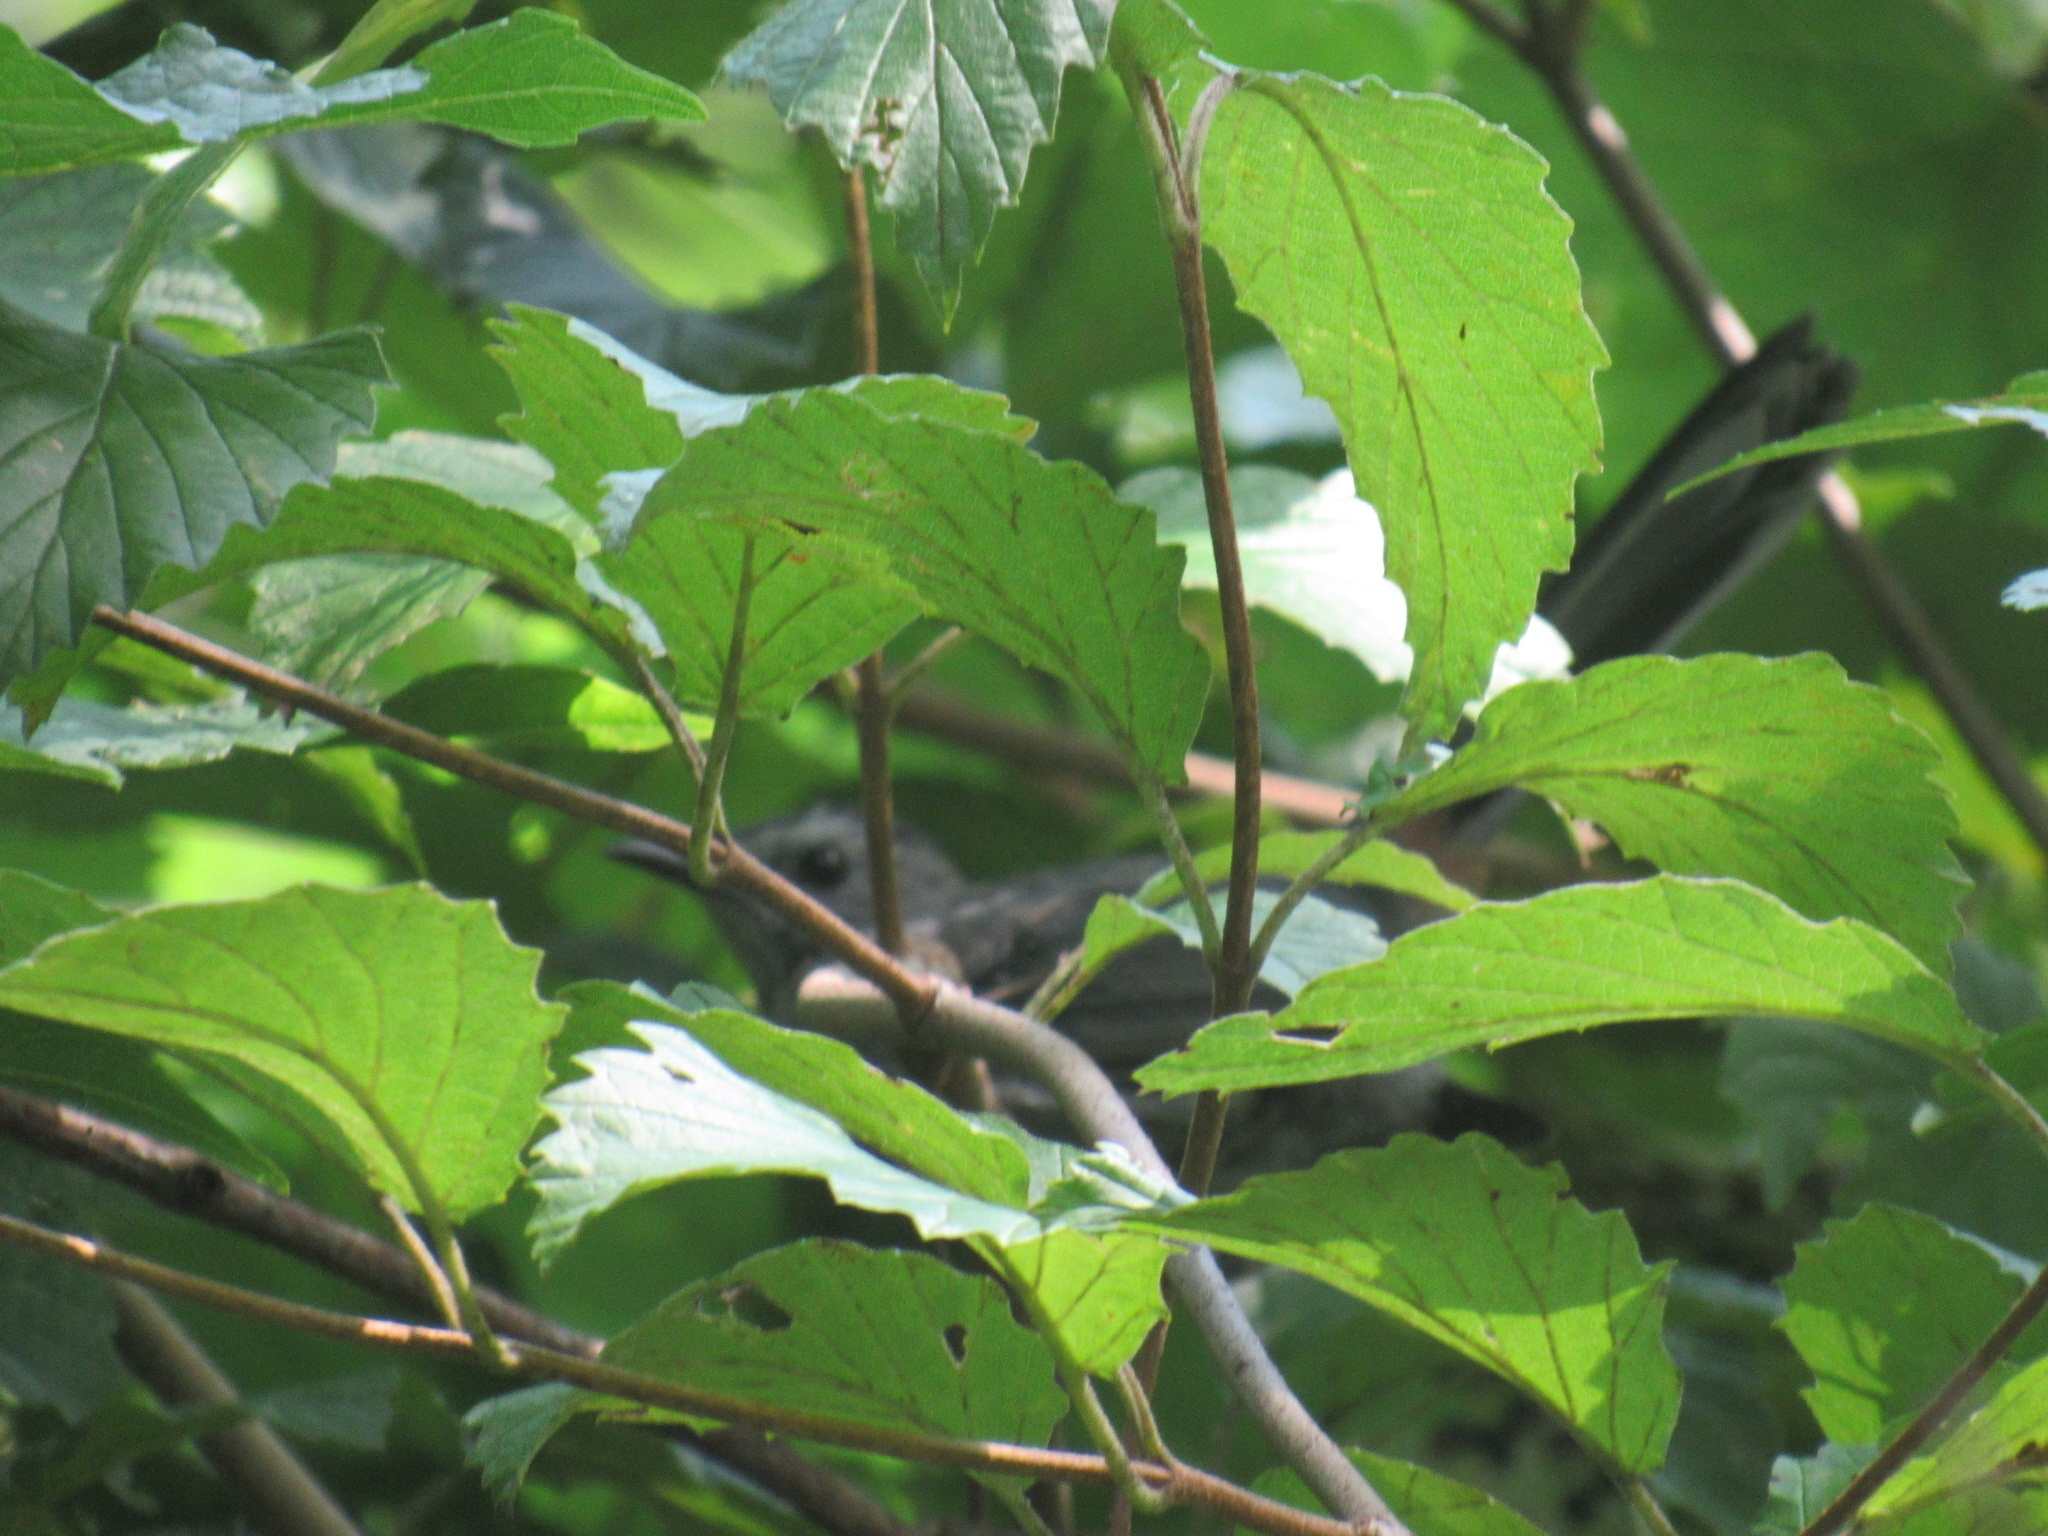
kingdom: Animalia
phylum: Chordata
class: Aves
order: Passeriformes
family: Mimidae
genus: Dumetella
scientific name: Dumetella carolinensis
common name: Gray catbird
